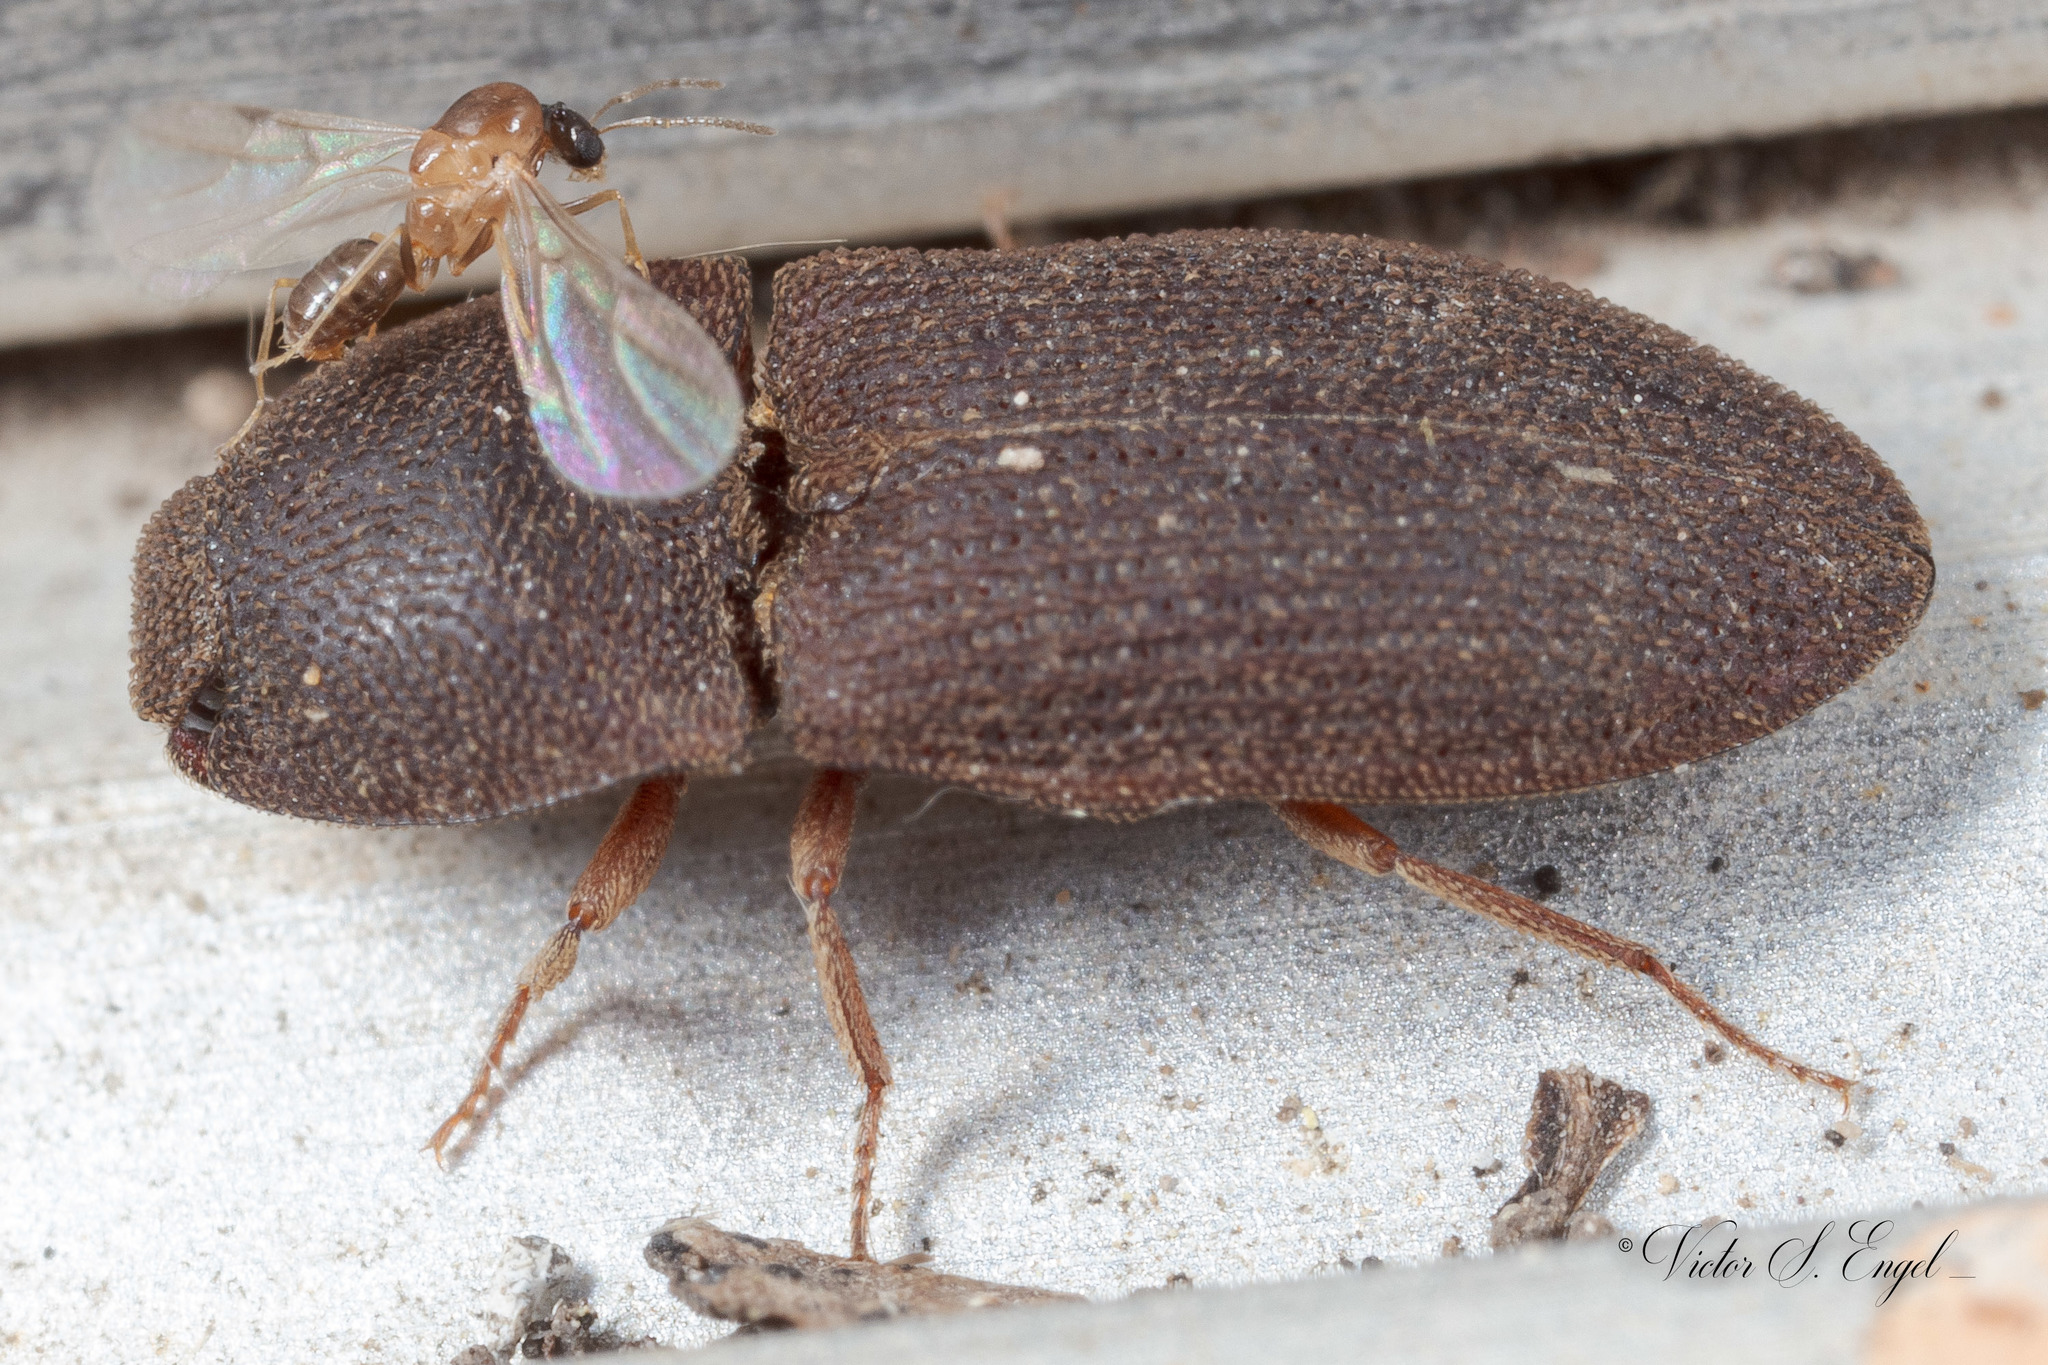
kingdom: Animalia
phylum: Arthropoda
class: Insecta
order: Coleoptera
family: Elateridae
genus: Agrypnus
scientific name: Agrypnus rectangularis
